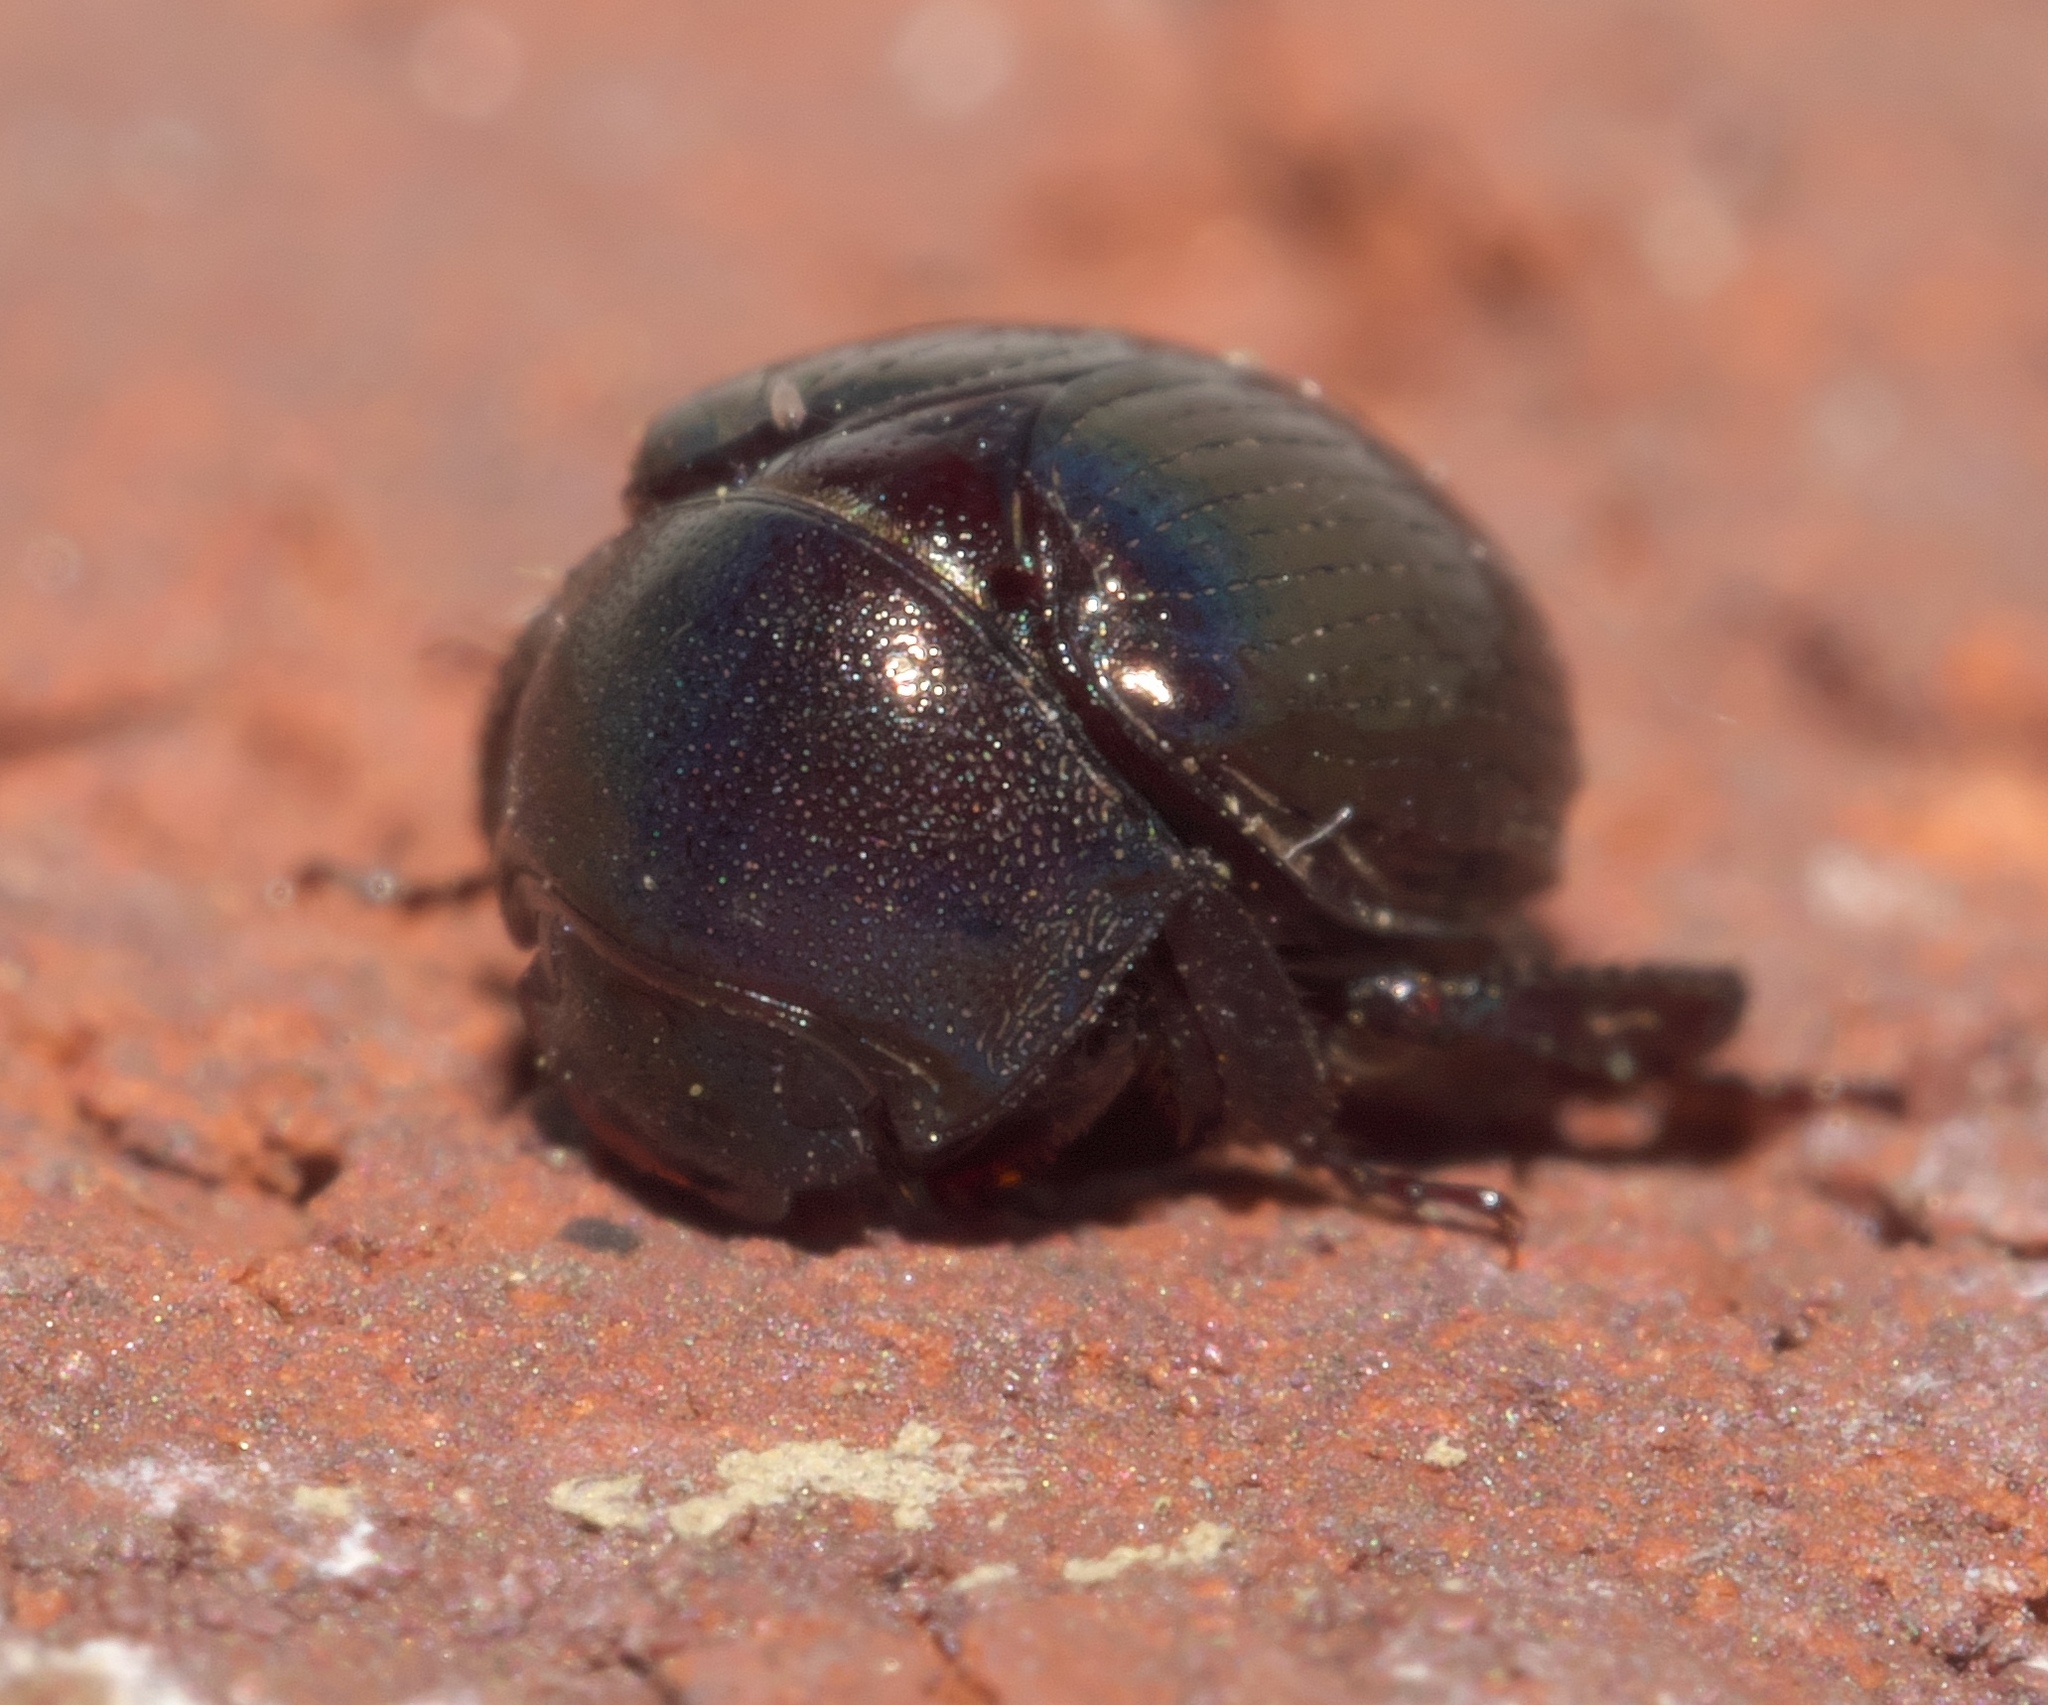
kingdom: Animalia
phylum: Arthropoda
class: Insecta
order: Coleoptera
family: Hybosoridae
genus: Germarostes
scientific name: Germarostes aphodioides
